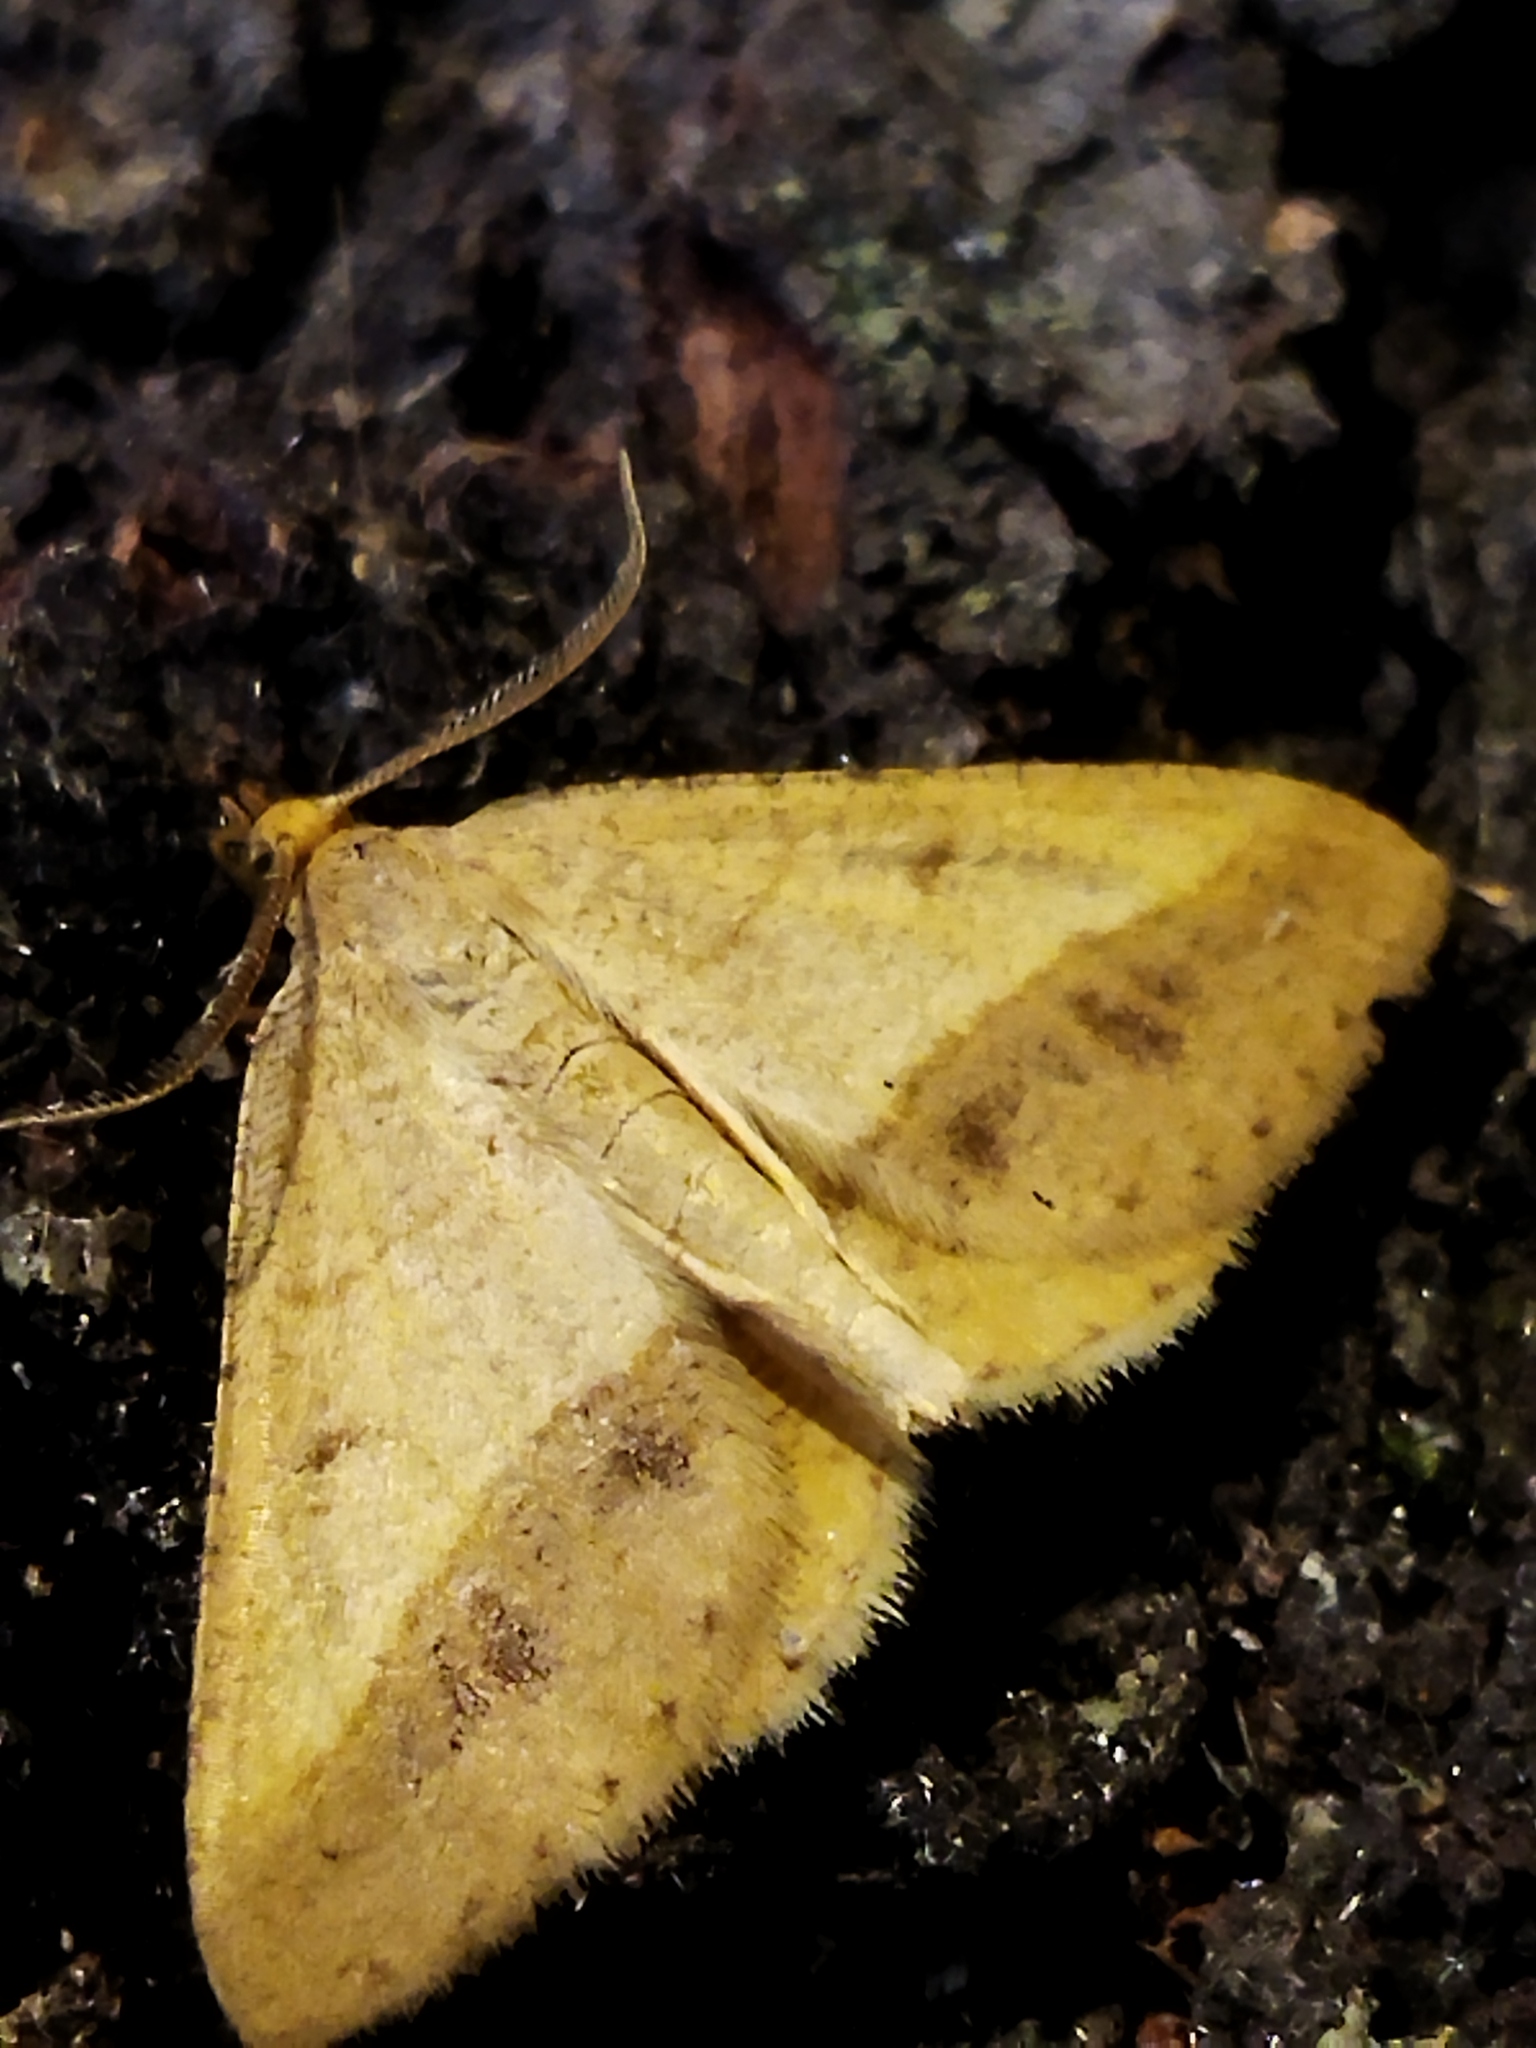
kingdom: Animalia
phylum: Arthropoda
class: Insecta
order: Lepidoptera
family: Geometridae
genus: Tephrina
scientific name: Tephrina arenacearia
